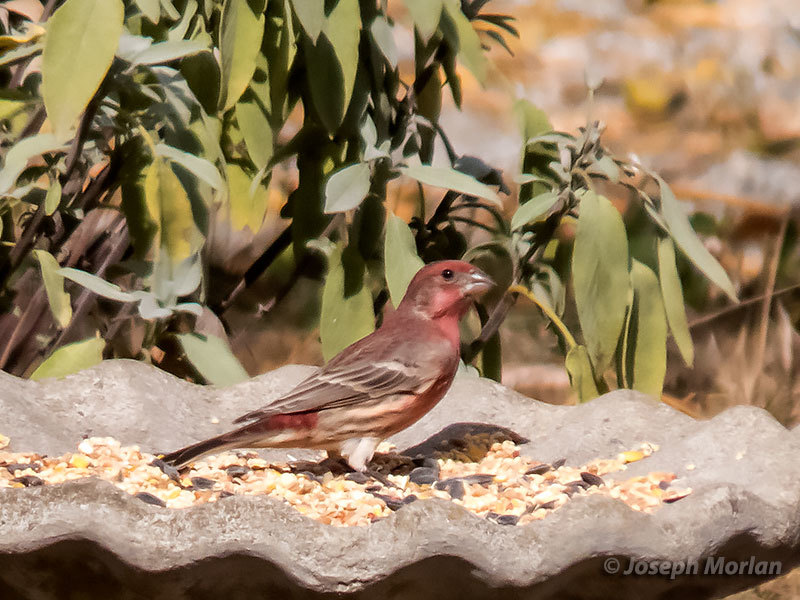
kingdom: Animalia
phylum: Chordata
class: Aves
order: Passeriformes
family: Fringillidae
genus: Haemorhous
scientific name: Haemorhous mexicanus
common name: House finch
